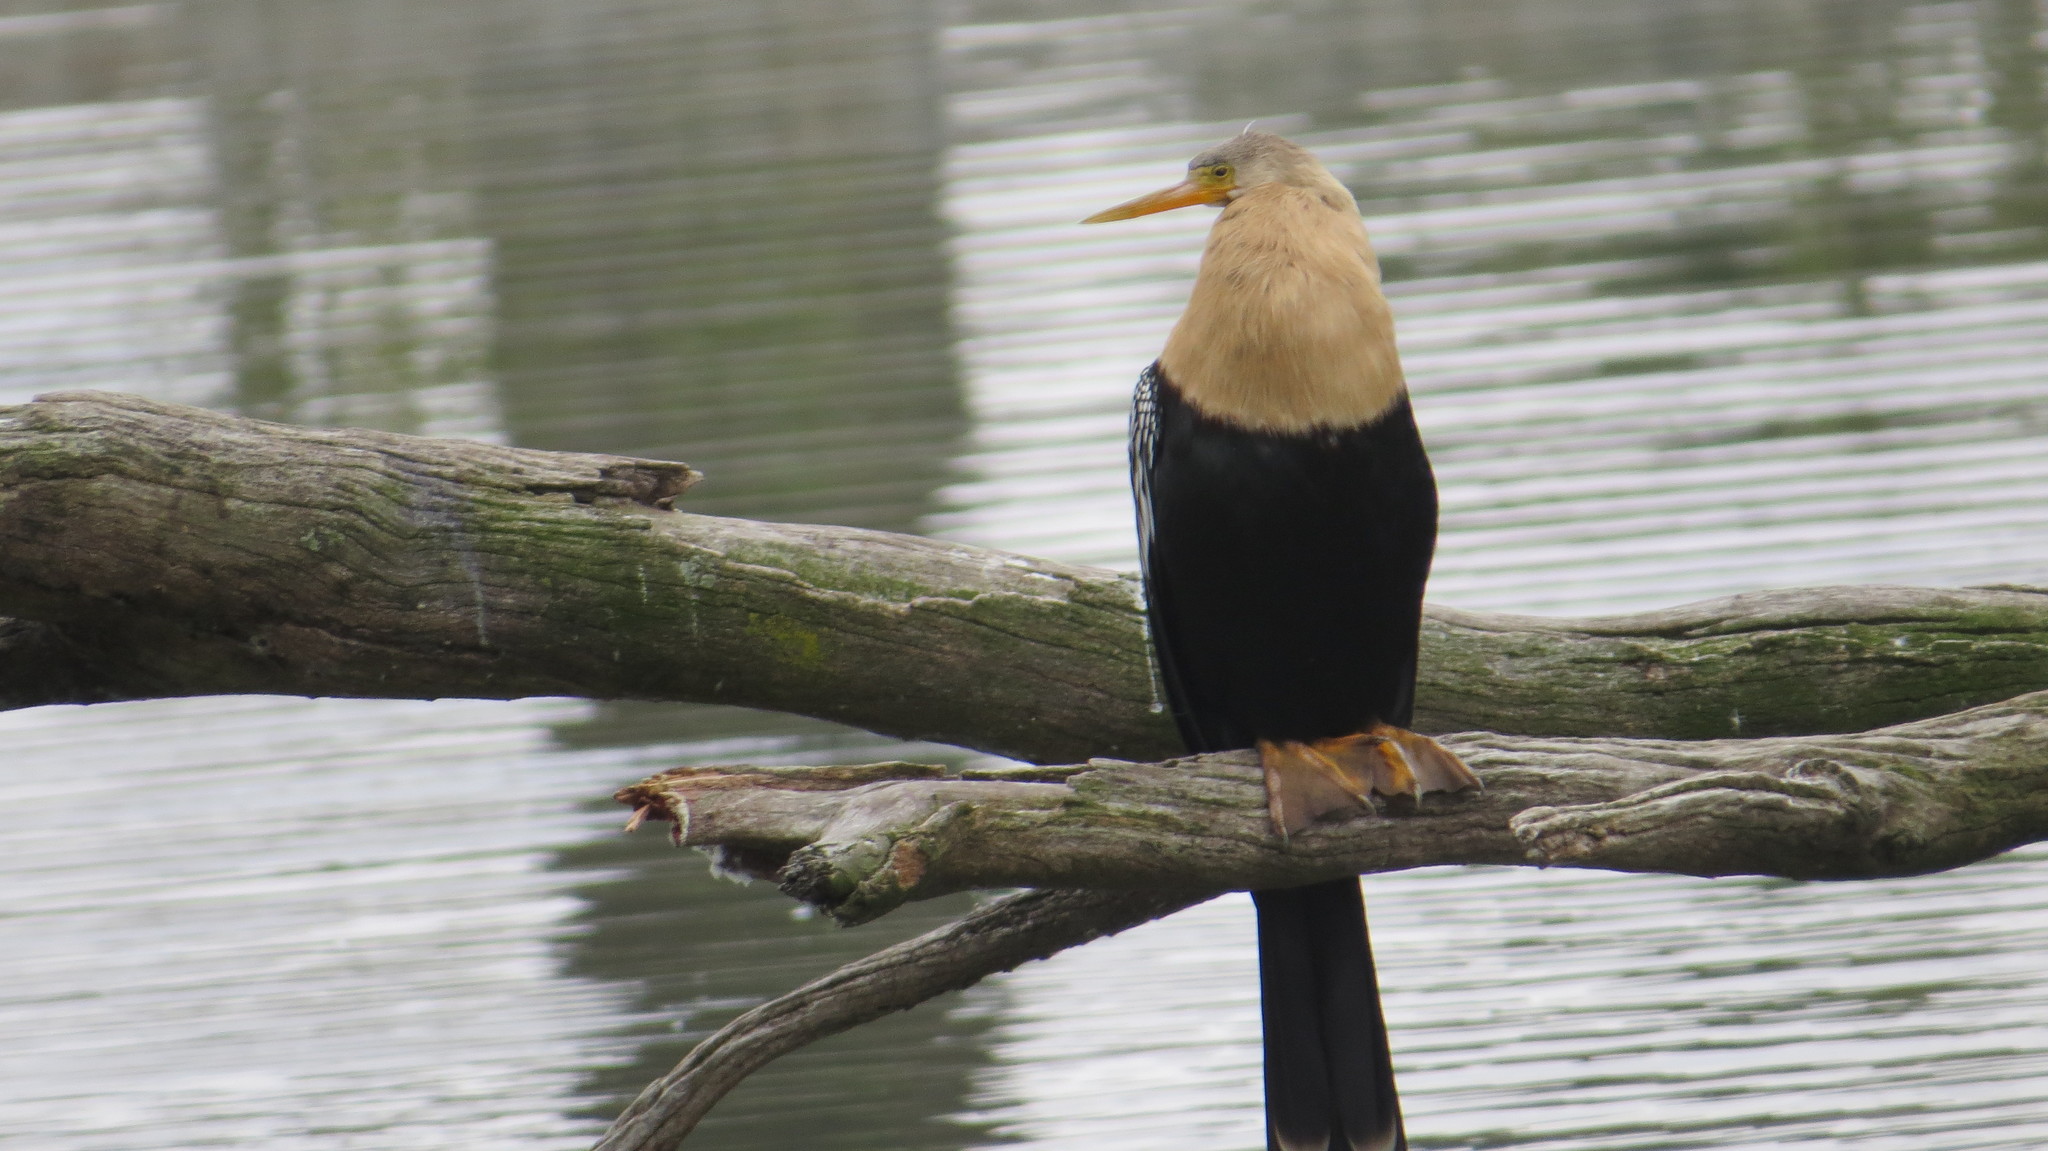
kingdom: Animalia
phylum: Chordata
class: Aves
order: Suliformes
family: Anhingidae
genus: Anhinga
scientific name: Anhinga anhinga
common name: Anhinga
